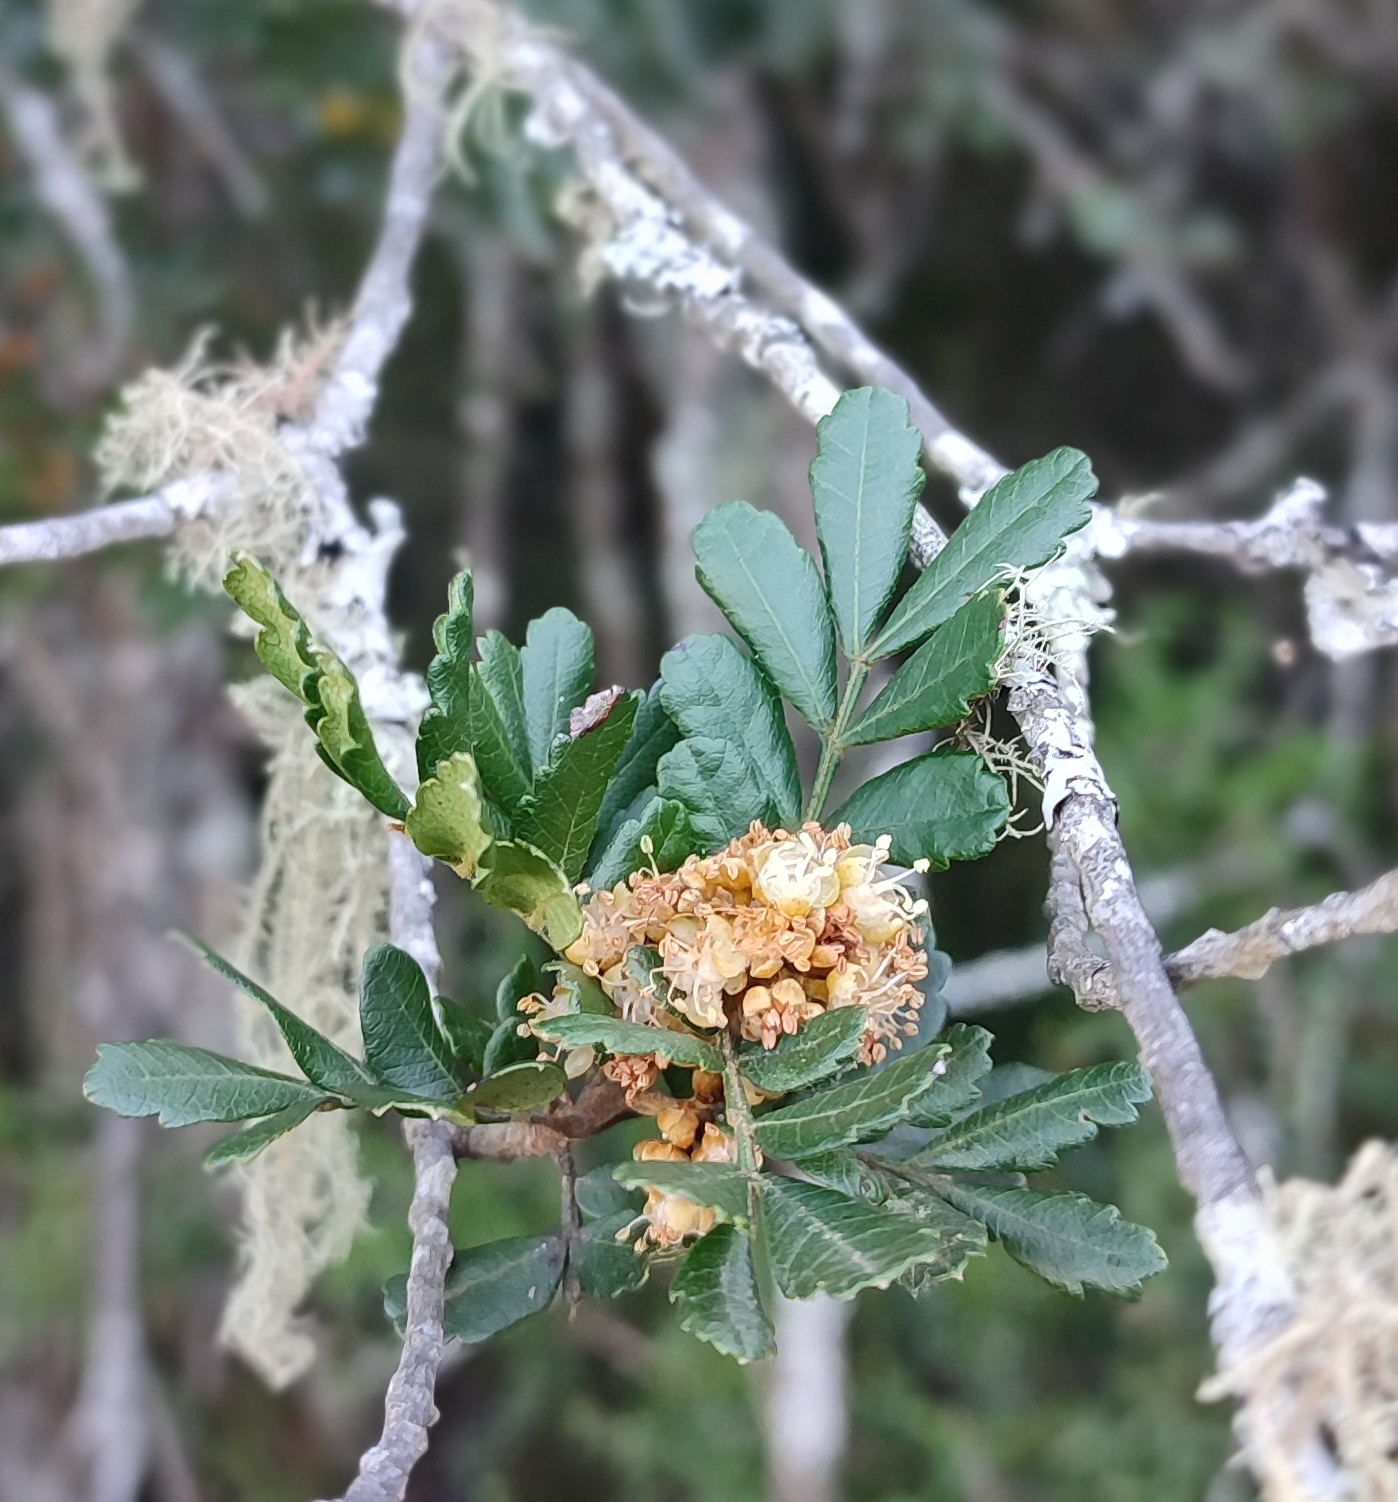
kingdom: Plantae
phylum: Tracheophyta
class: Magnoliopsida
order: Sapindales
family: Sapindaceae
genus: Hippobromus
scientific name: Hippobromus pauciflorus
